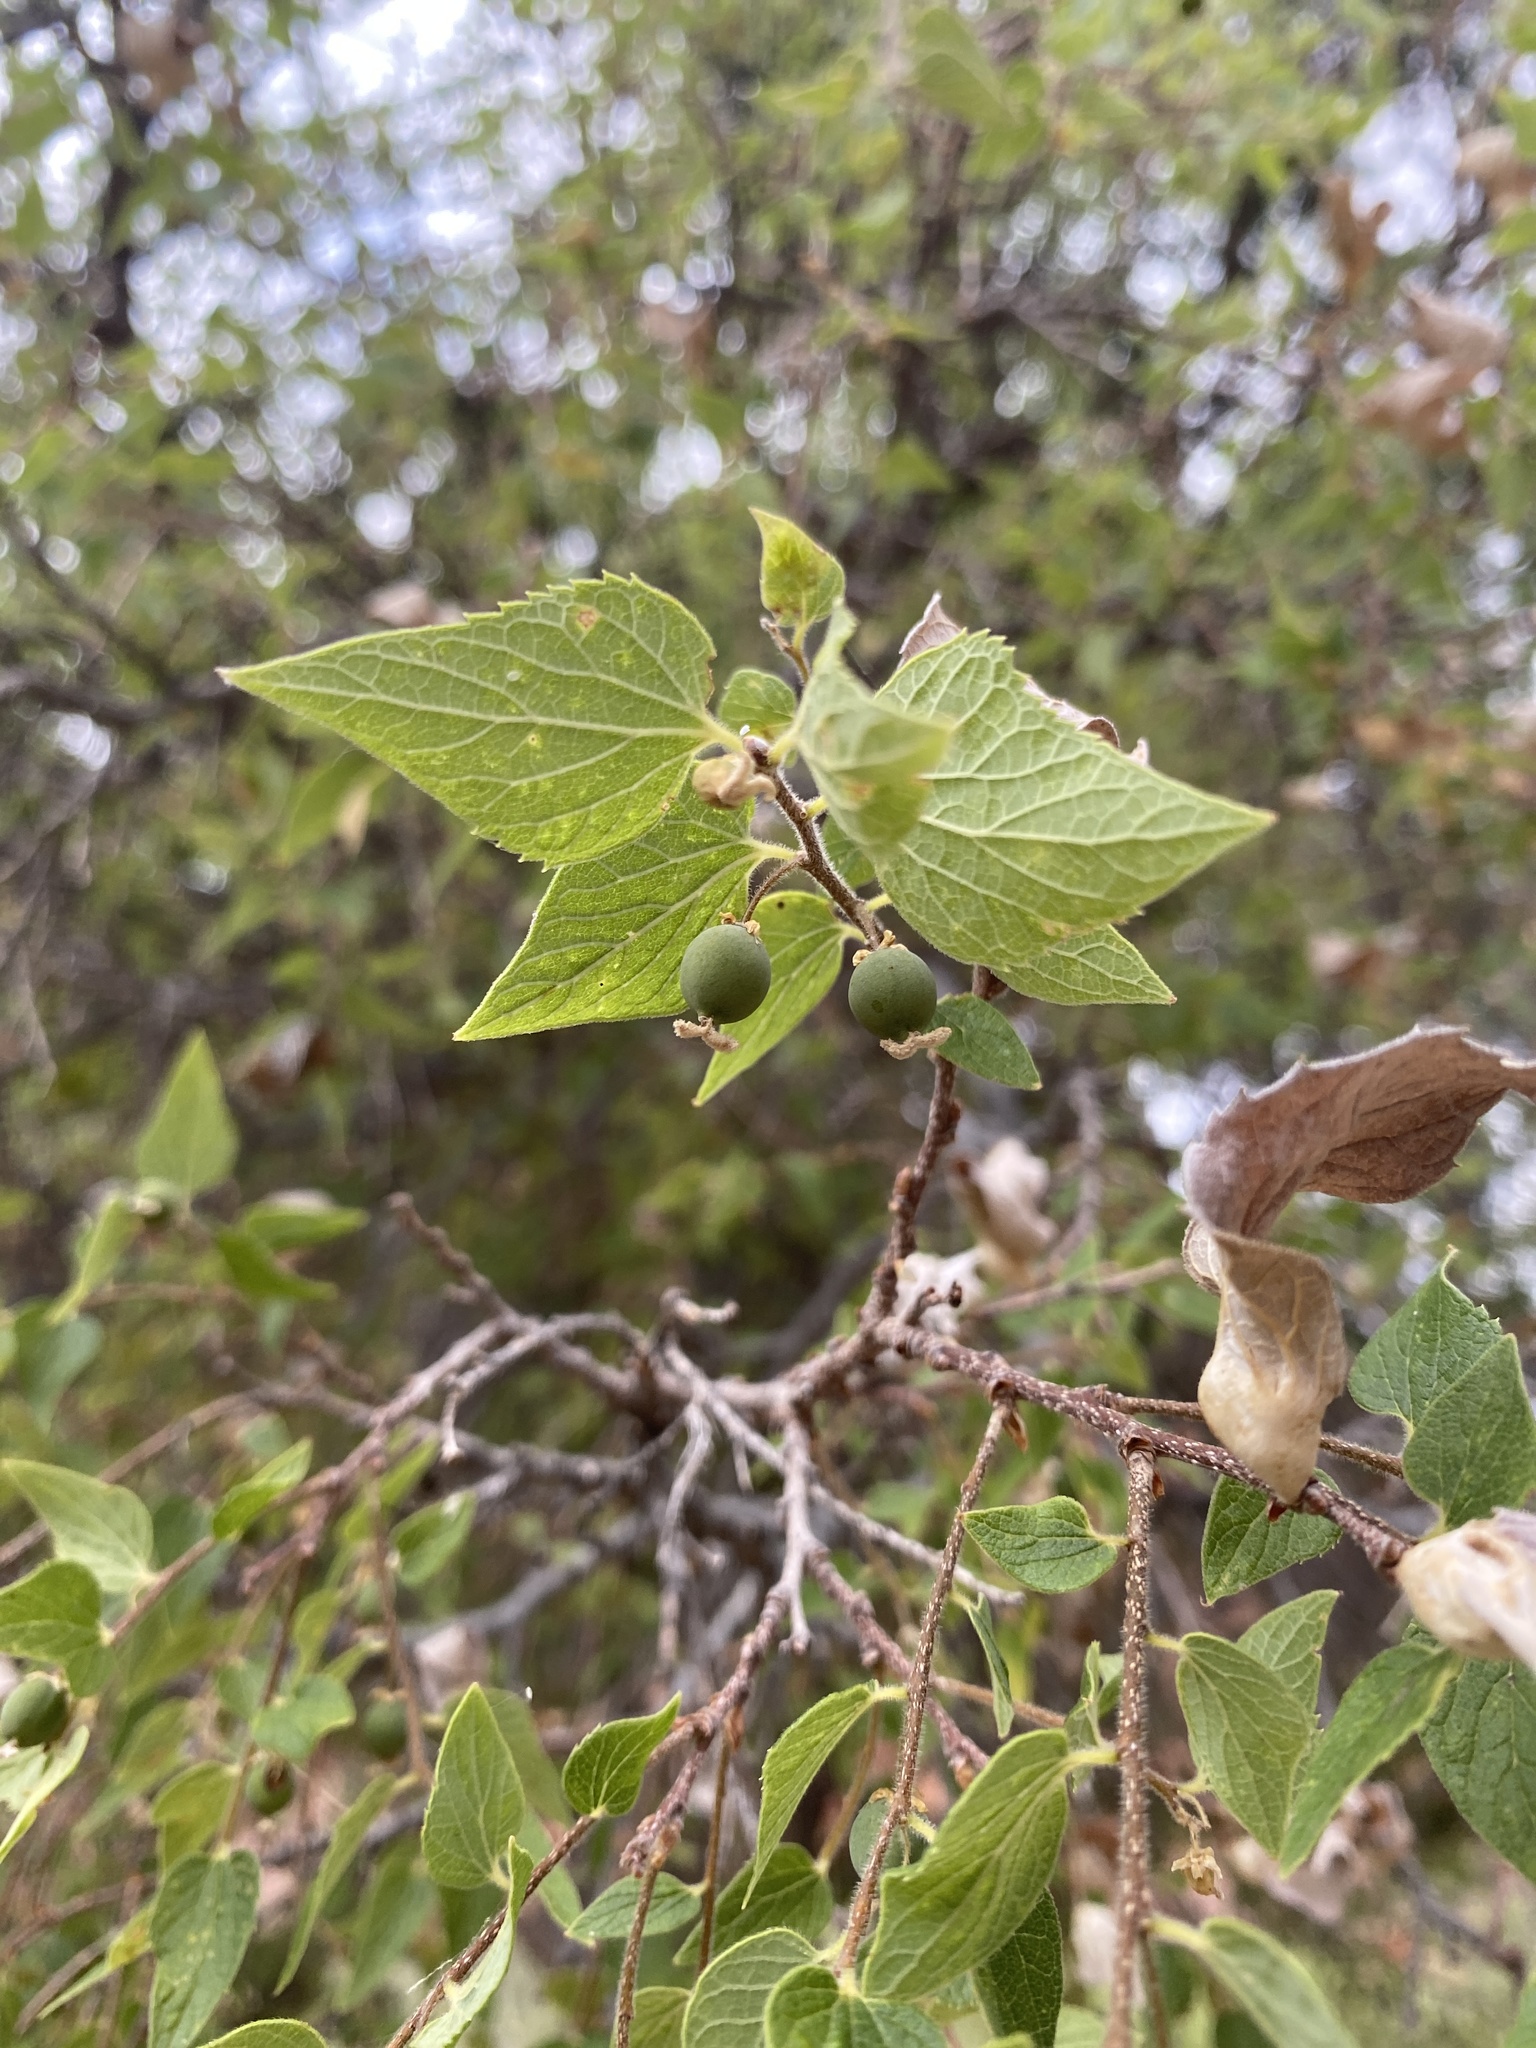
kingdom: Plantae
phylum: Tracheophyta
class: Magnoliopsida
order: Rosales
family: Cannabaceae
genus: Celtis
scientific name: Celtis reticulata
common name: Netleaf hackberry
